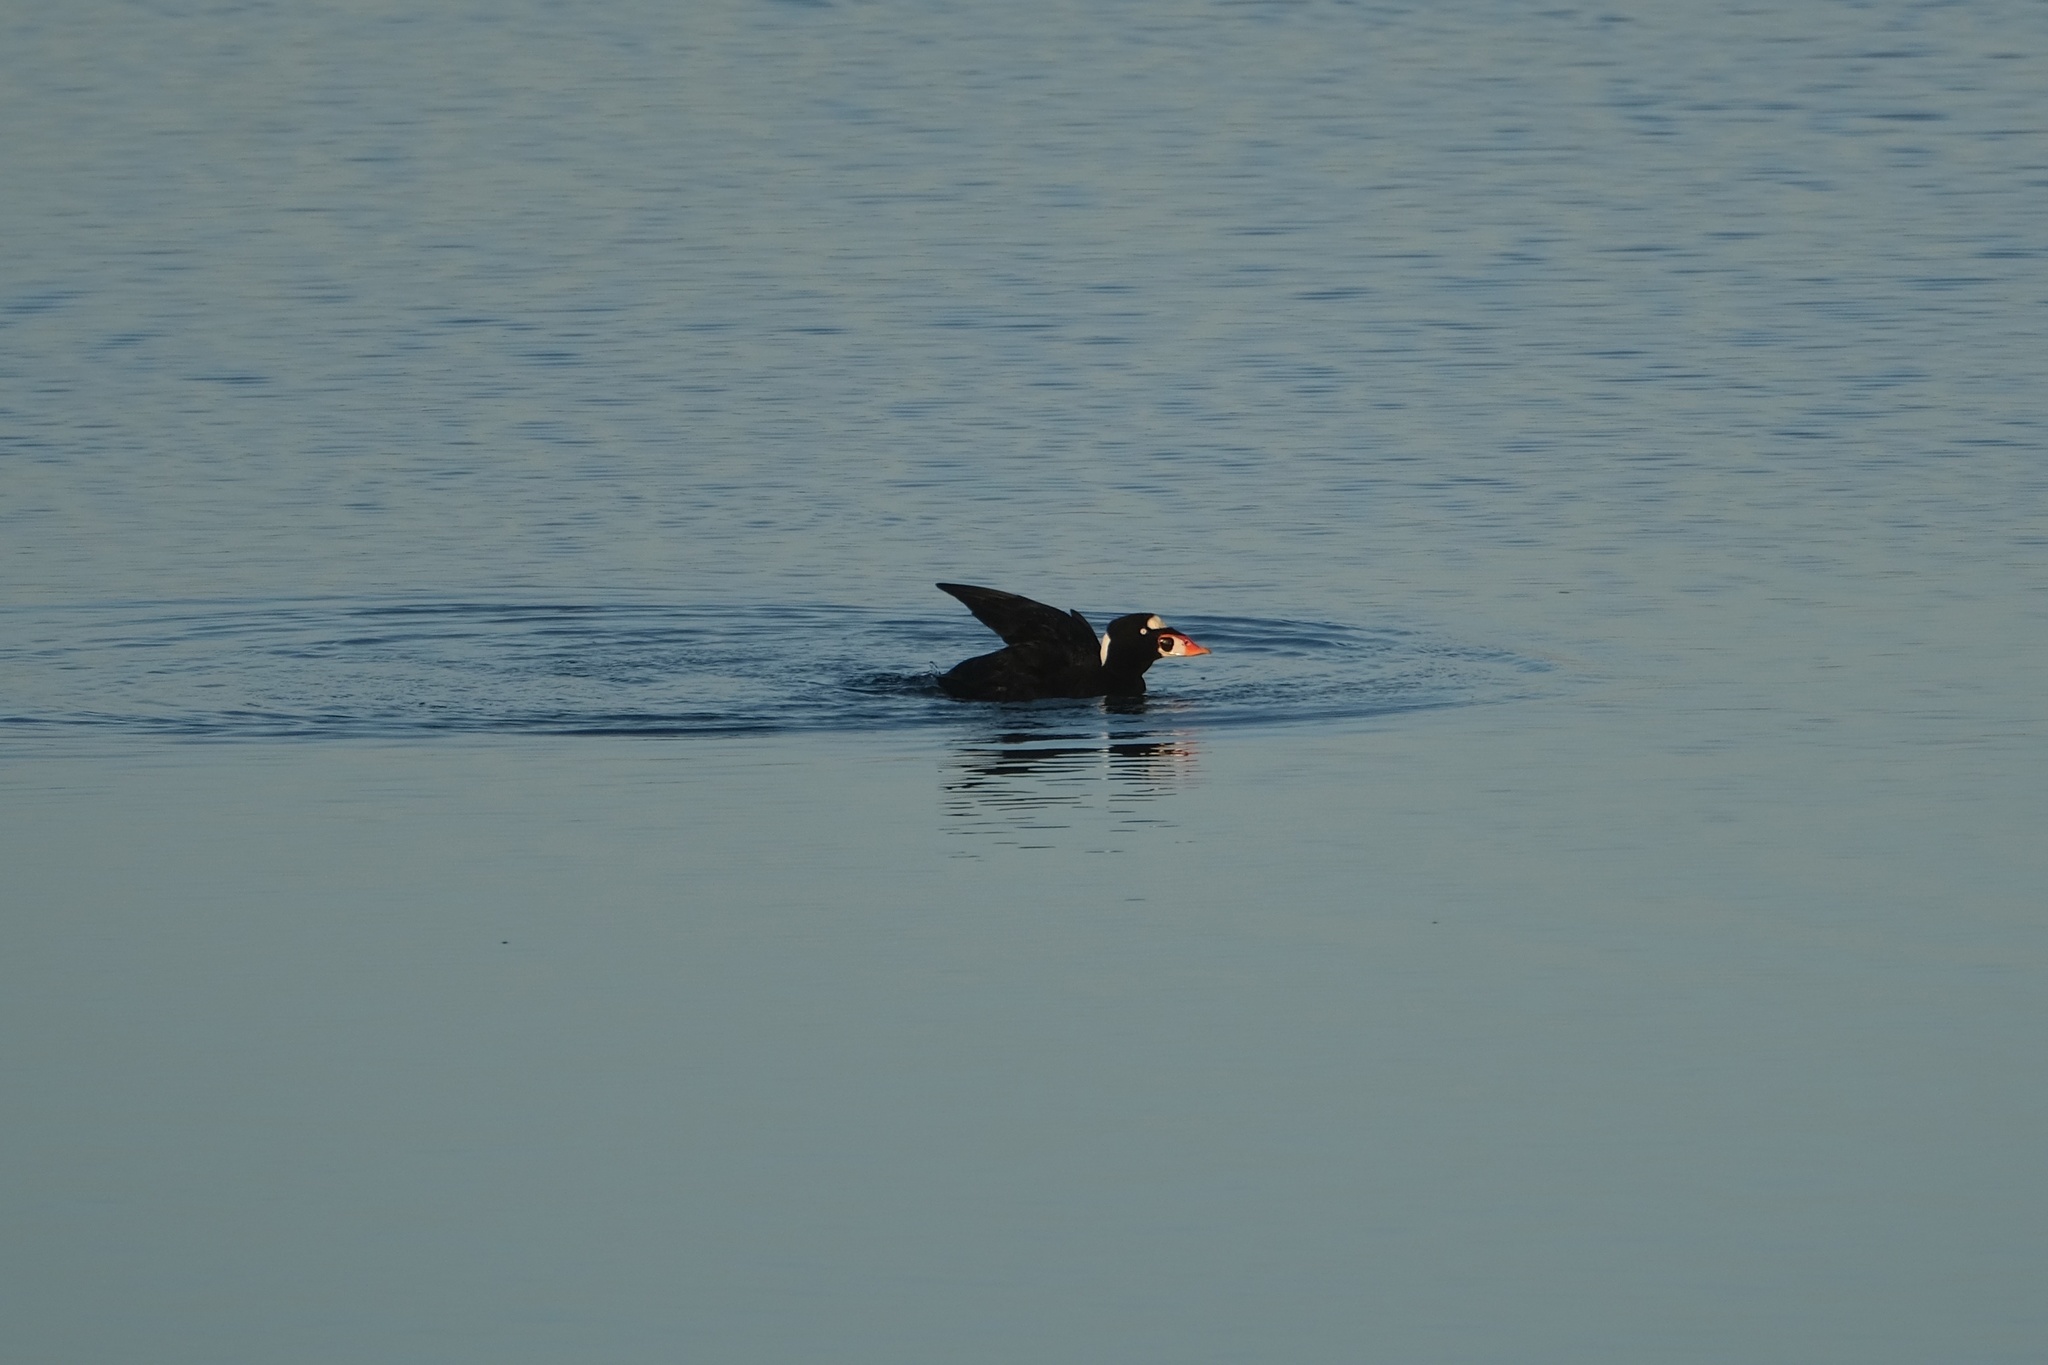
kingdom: Animalia
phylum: Chordata
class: Aves
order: Anseriformes
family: Anatidae
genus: Melanitta
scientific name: Melanitta perspicillata
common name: Surf scoter
